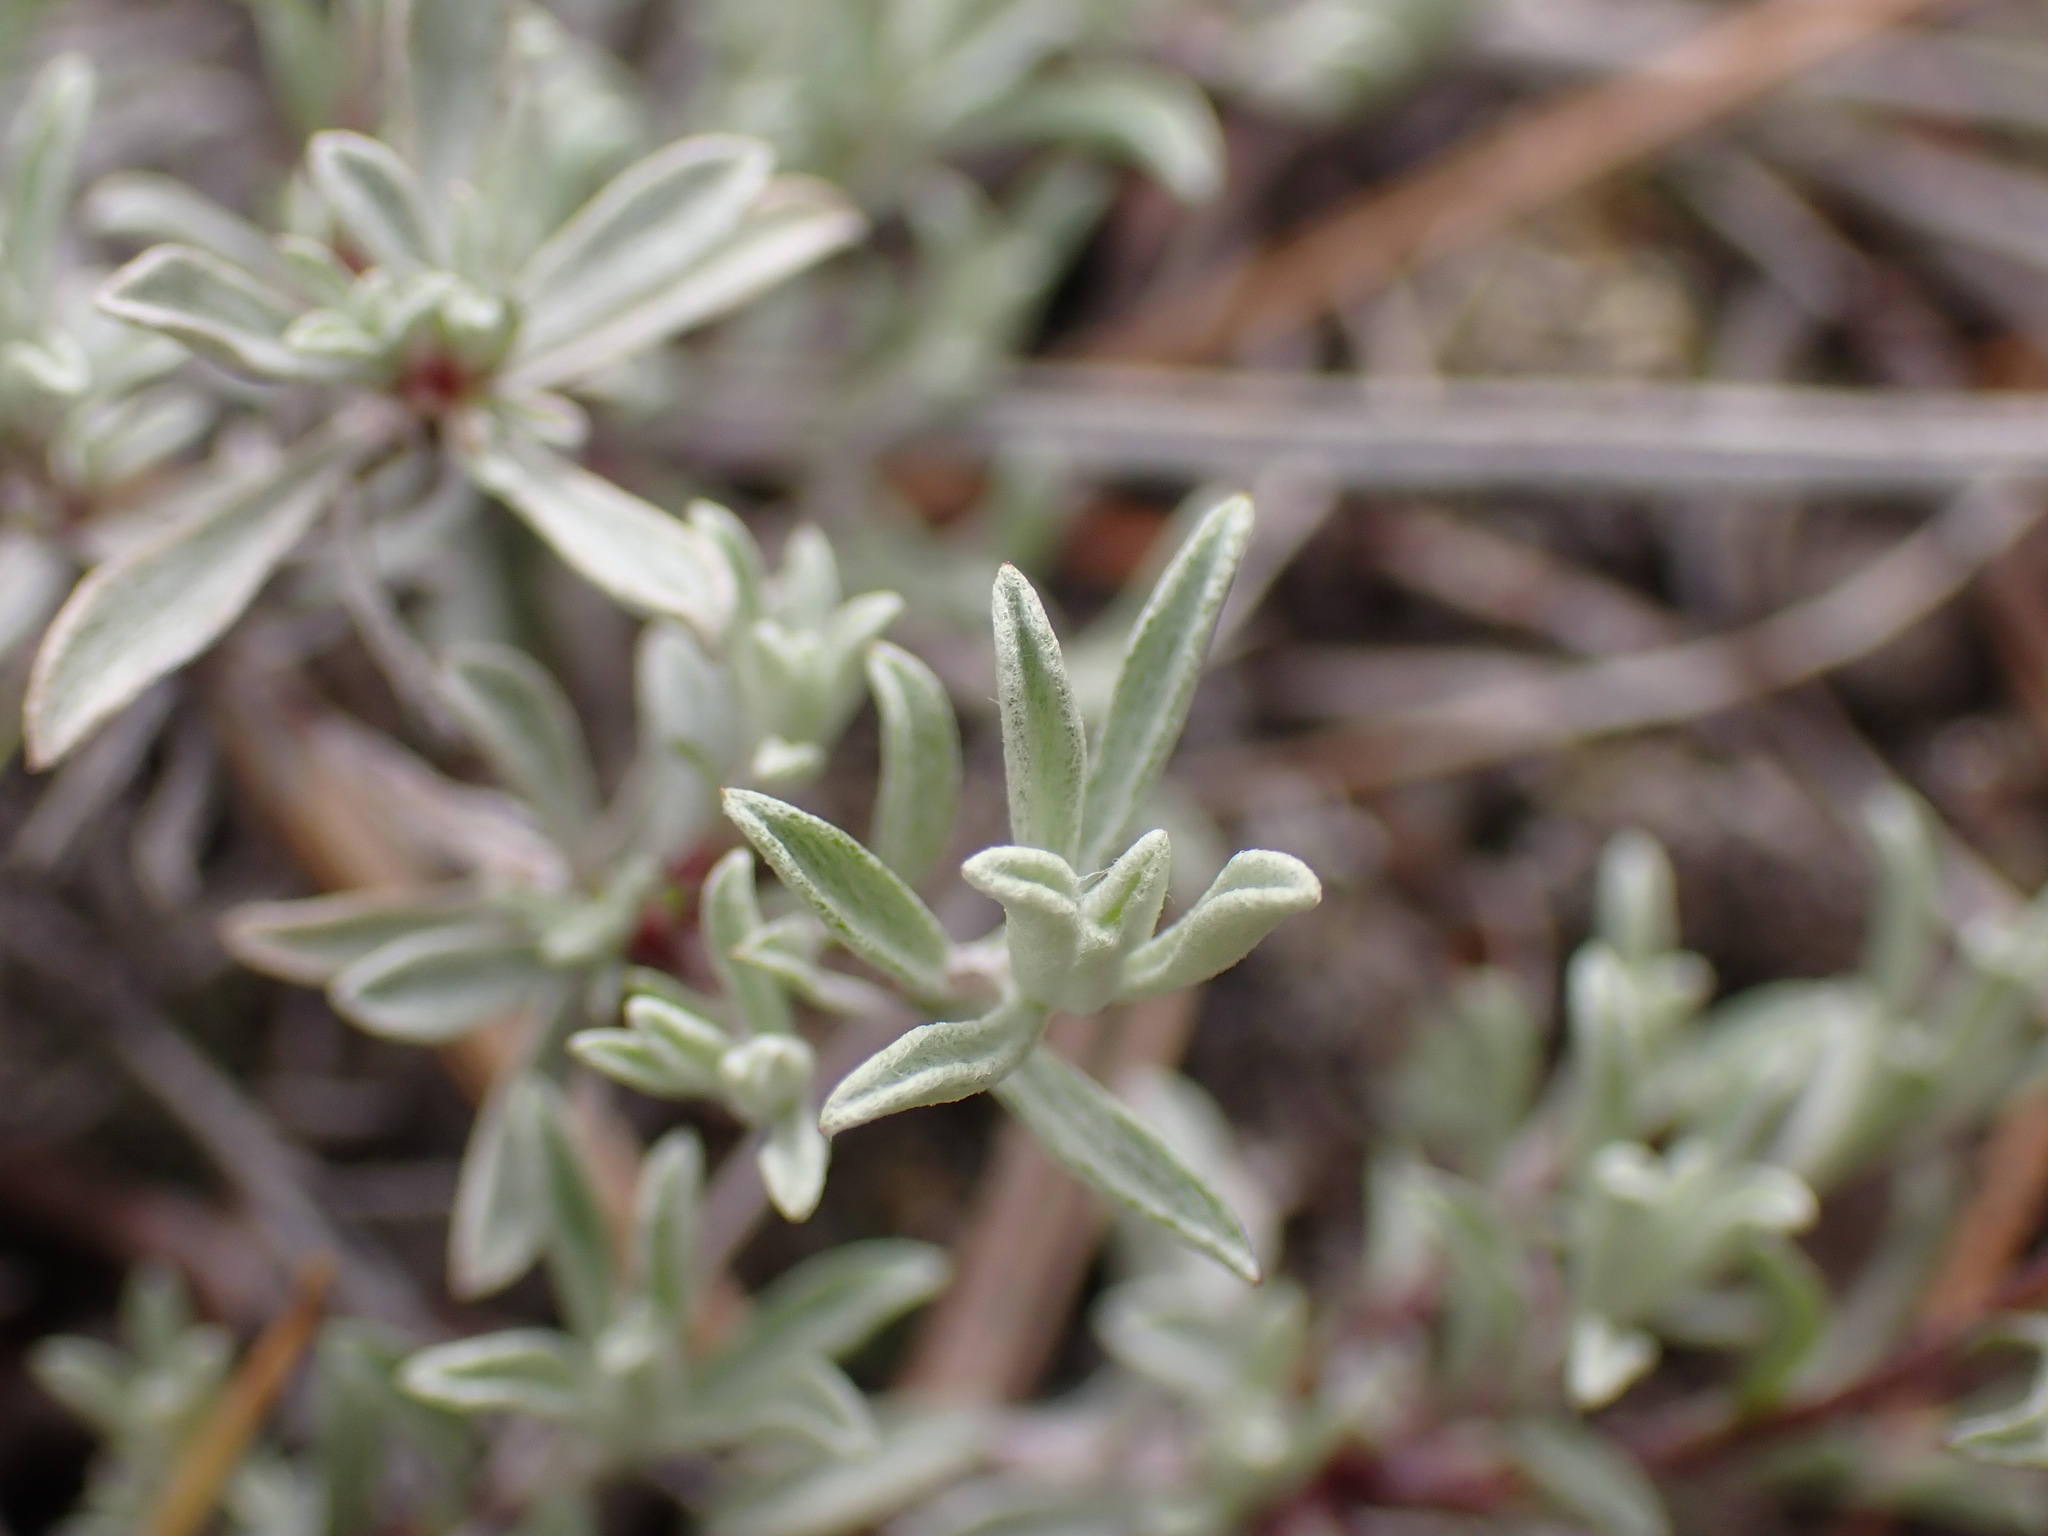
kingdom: Plantae
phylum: Tracheophyta
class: Magnoliopsida
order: Asterales
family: Asteraceae
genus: Antennaria
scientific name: Antennaria umbrinella
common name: Brown pussytoes
